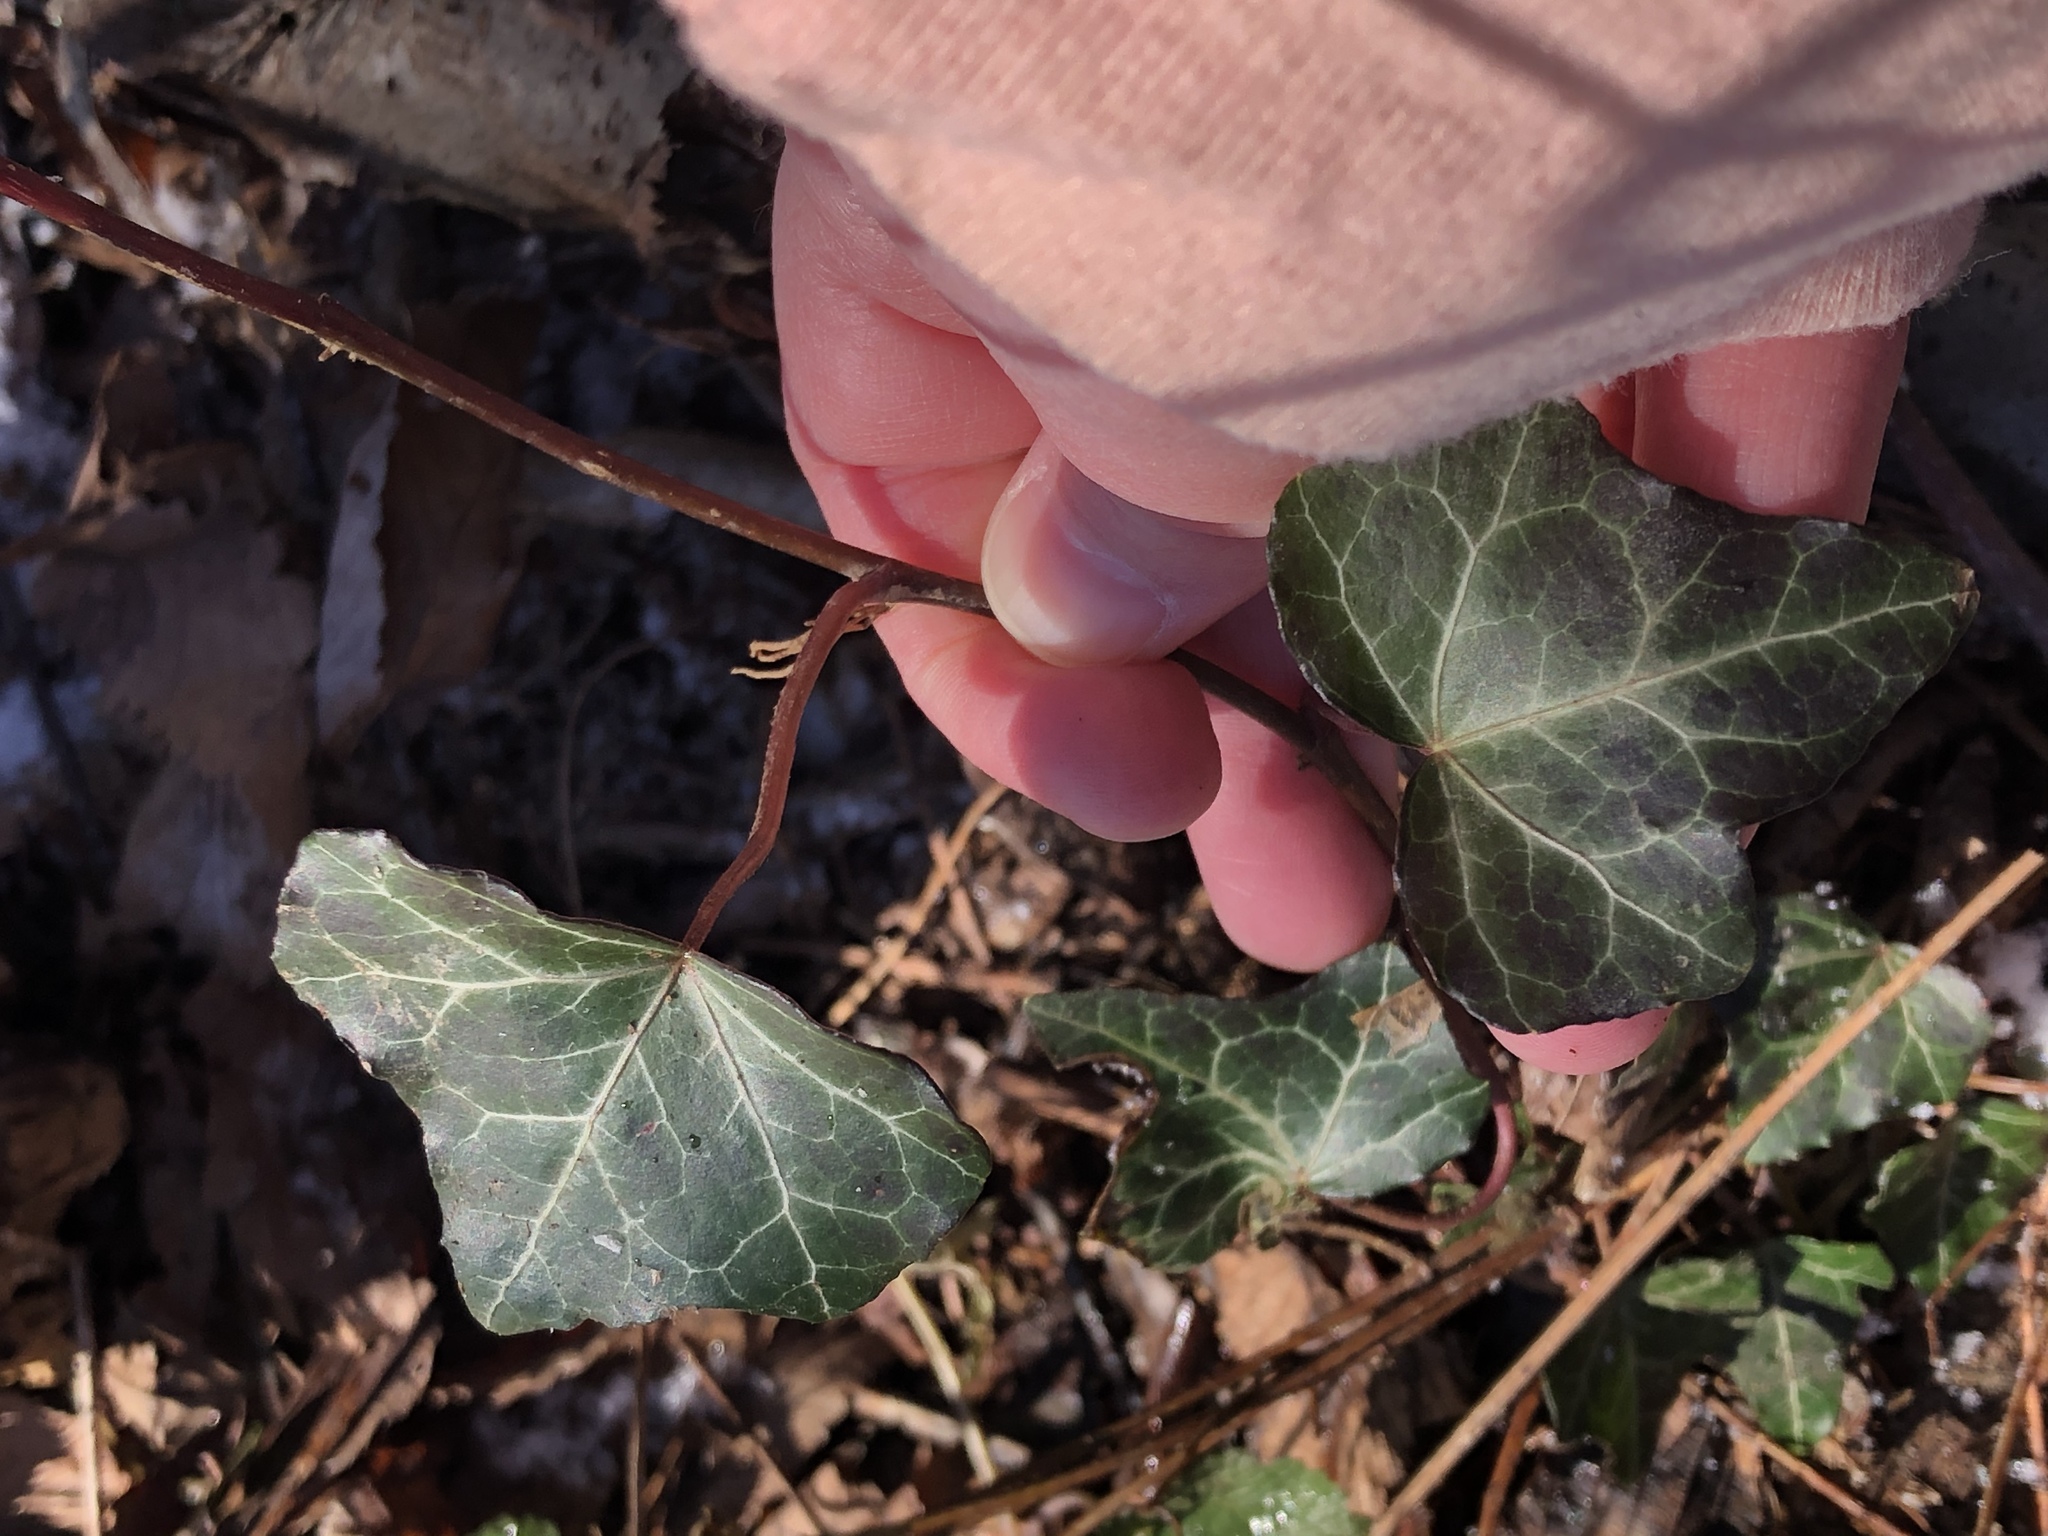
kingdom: Plantae
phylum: Tracheophyta
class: Magnoliopsida
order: Apiales
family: Araliaceae
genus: Hedera
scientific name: Hedera helix
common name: Ivy
